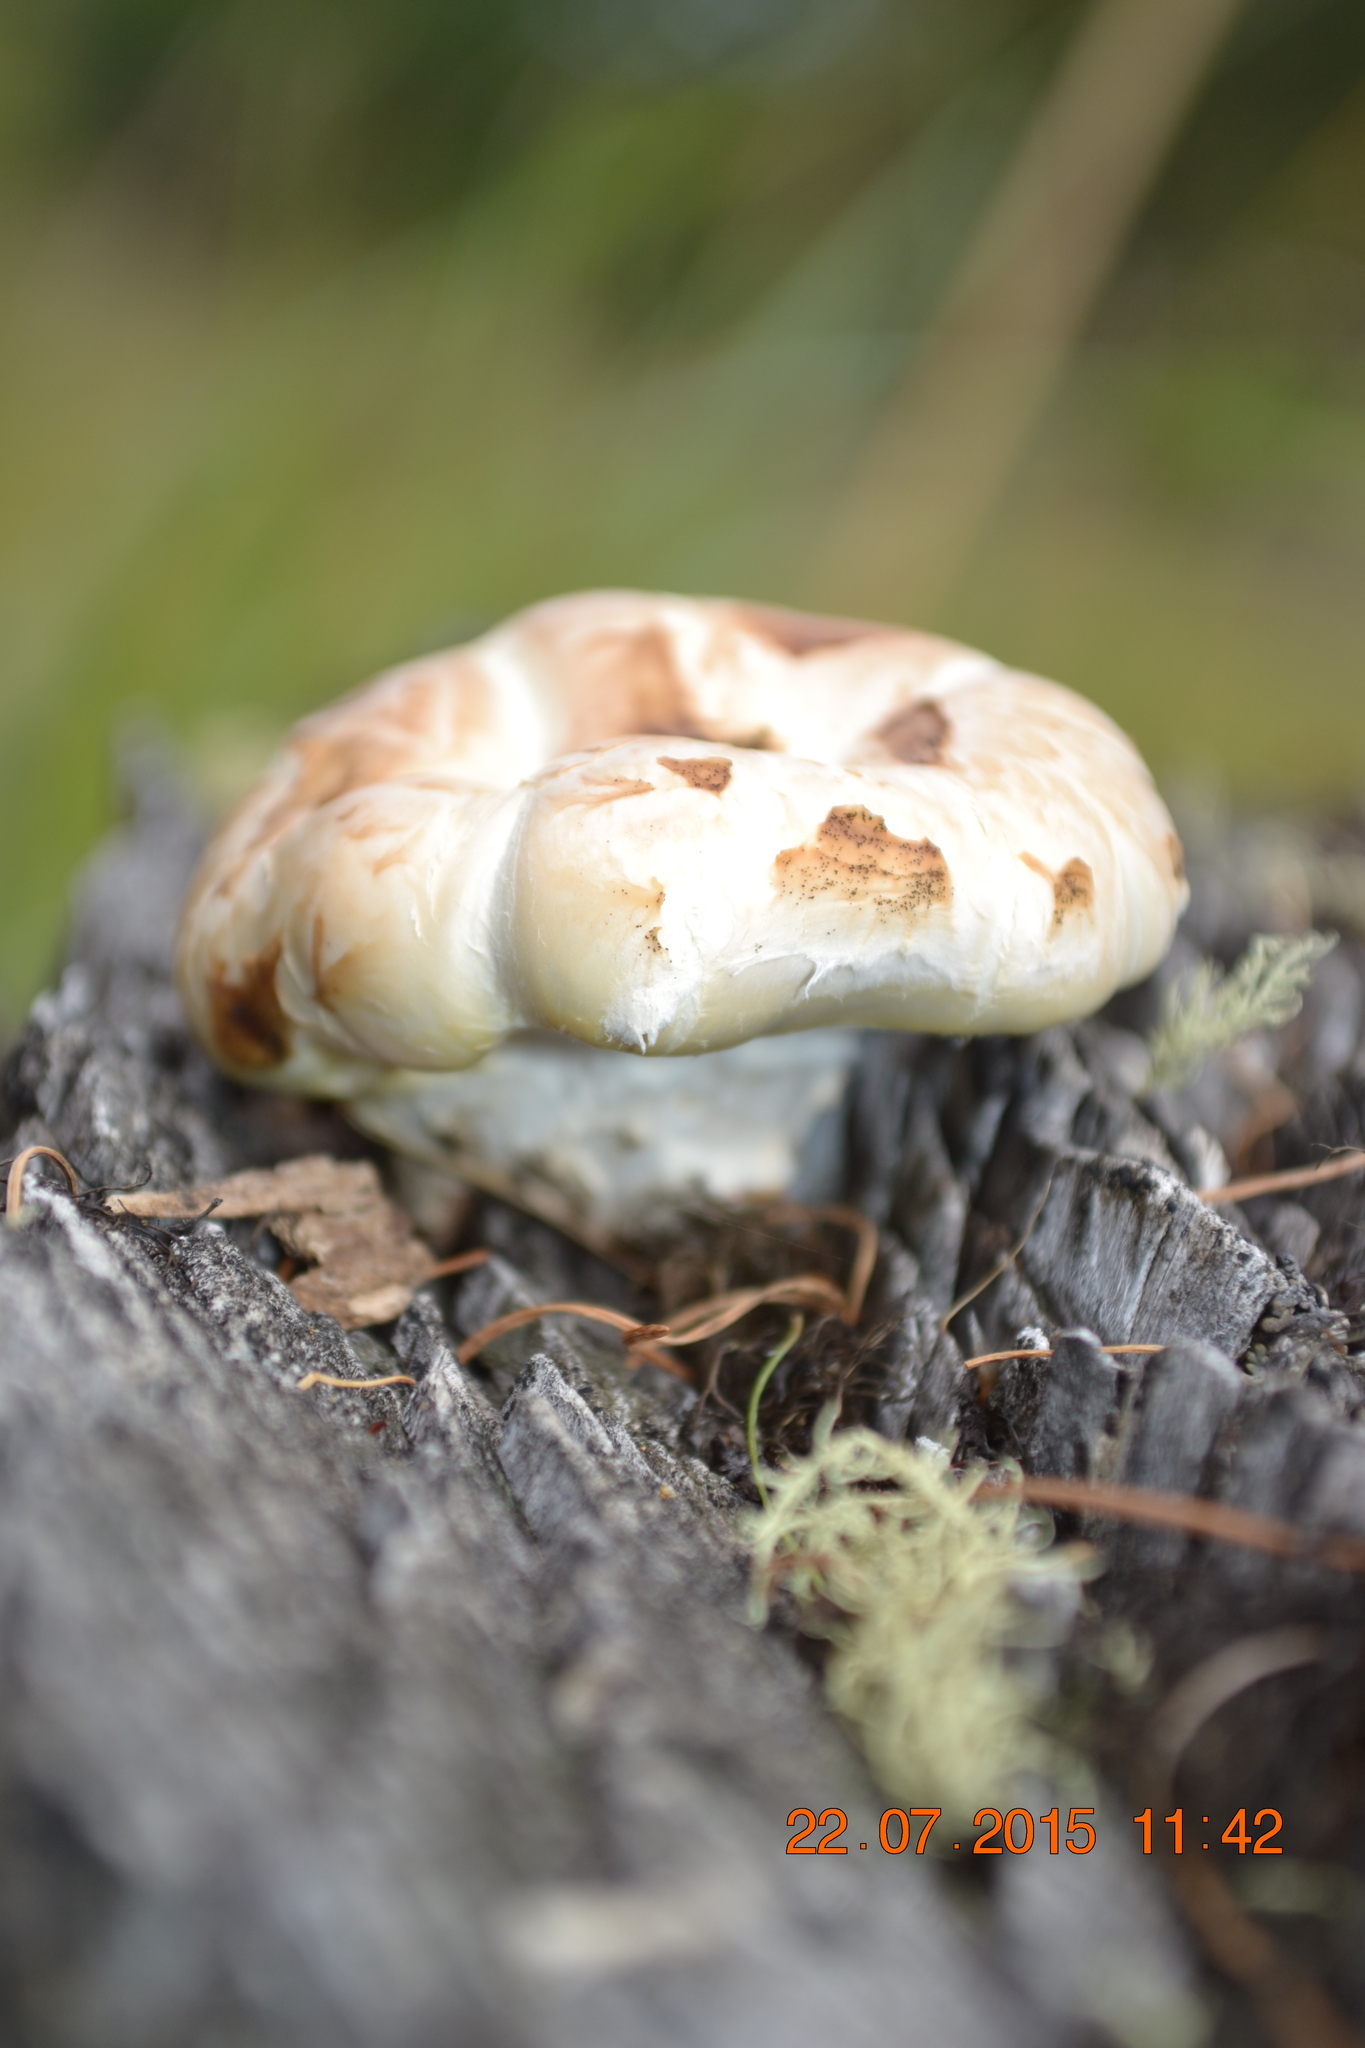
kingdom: Fungi
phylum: Basidiomycota
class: Agaricomycetes
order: Gloeophyllales
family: Gloeophyllaceae
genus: Neolentinus
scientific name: Neolentinus lepideus
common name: Scaly sawgill
